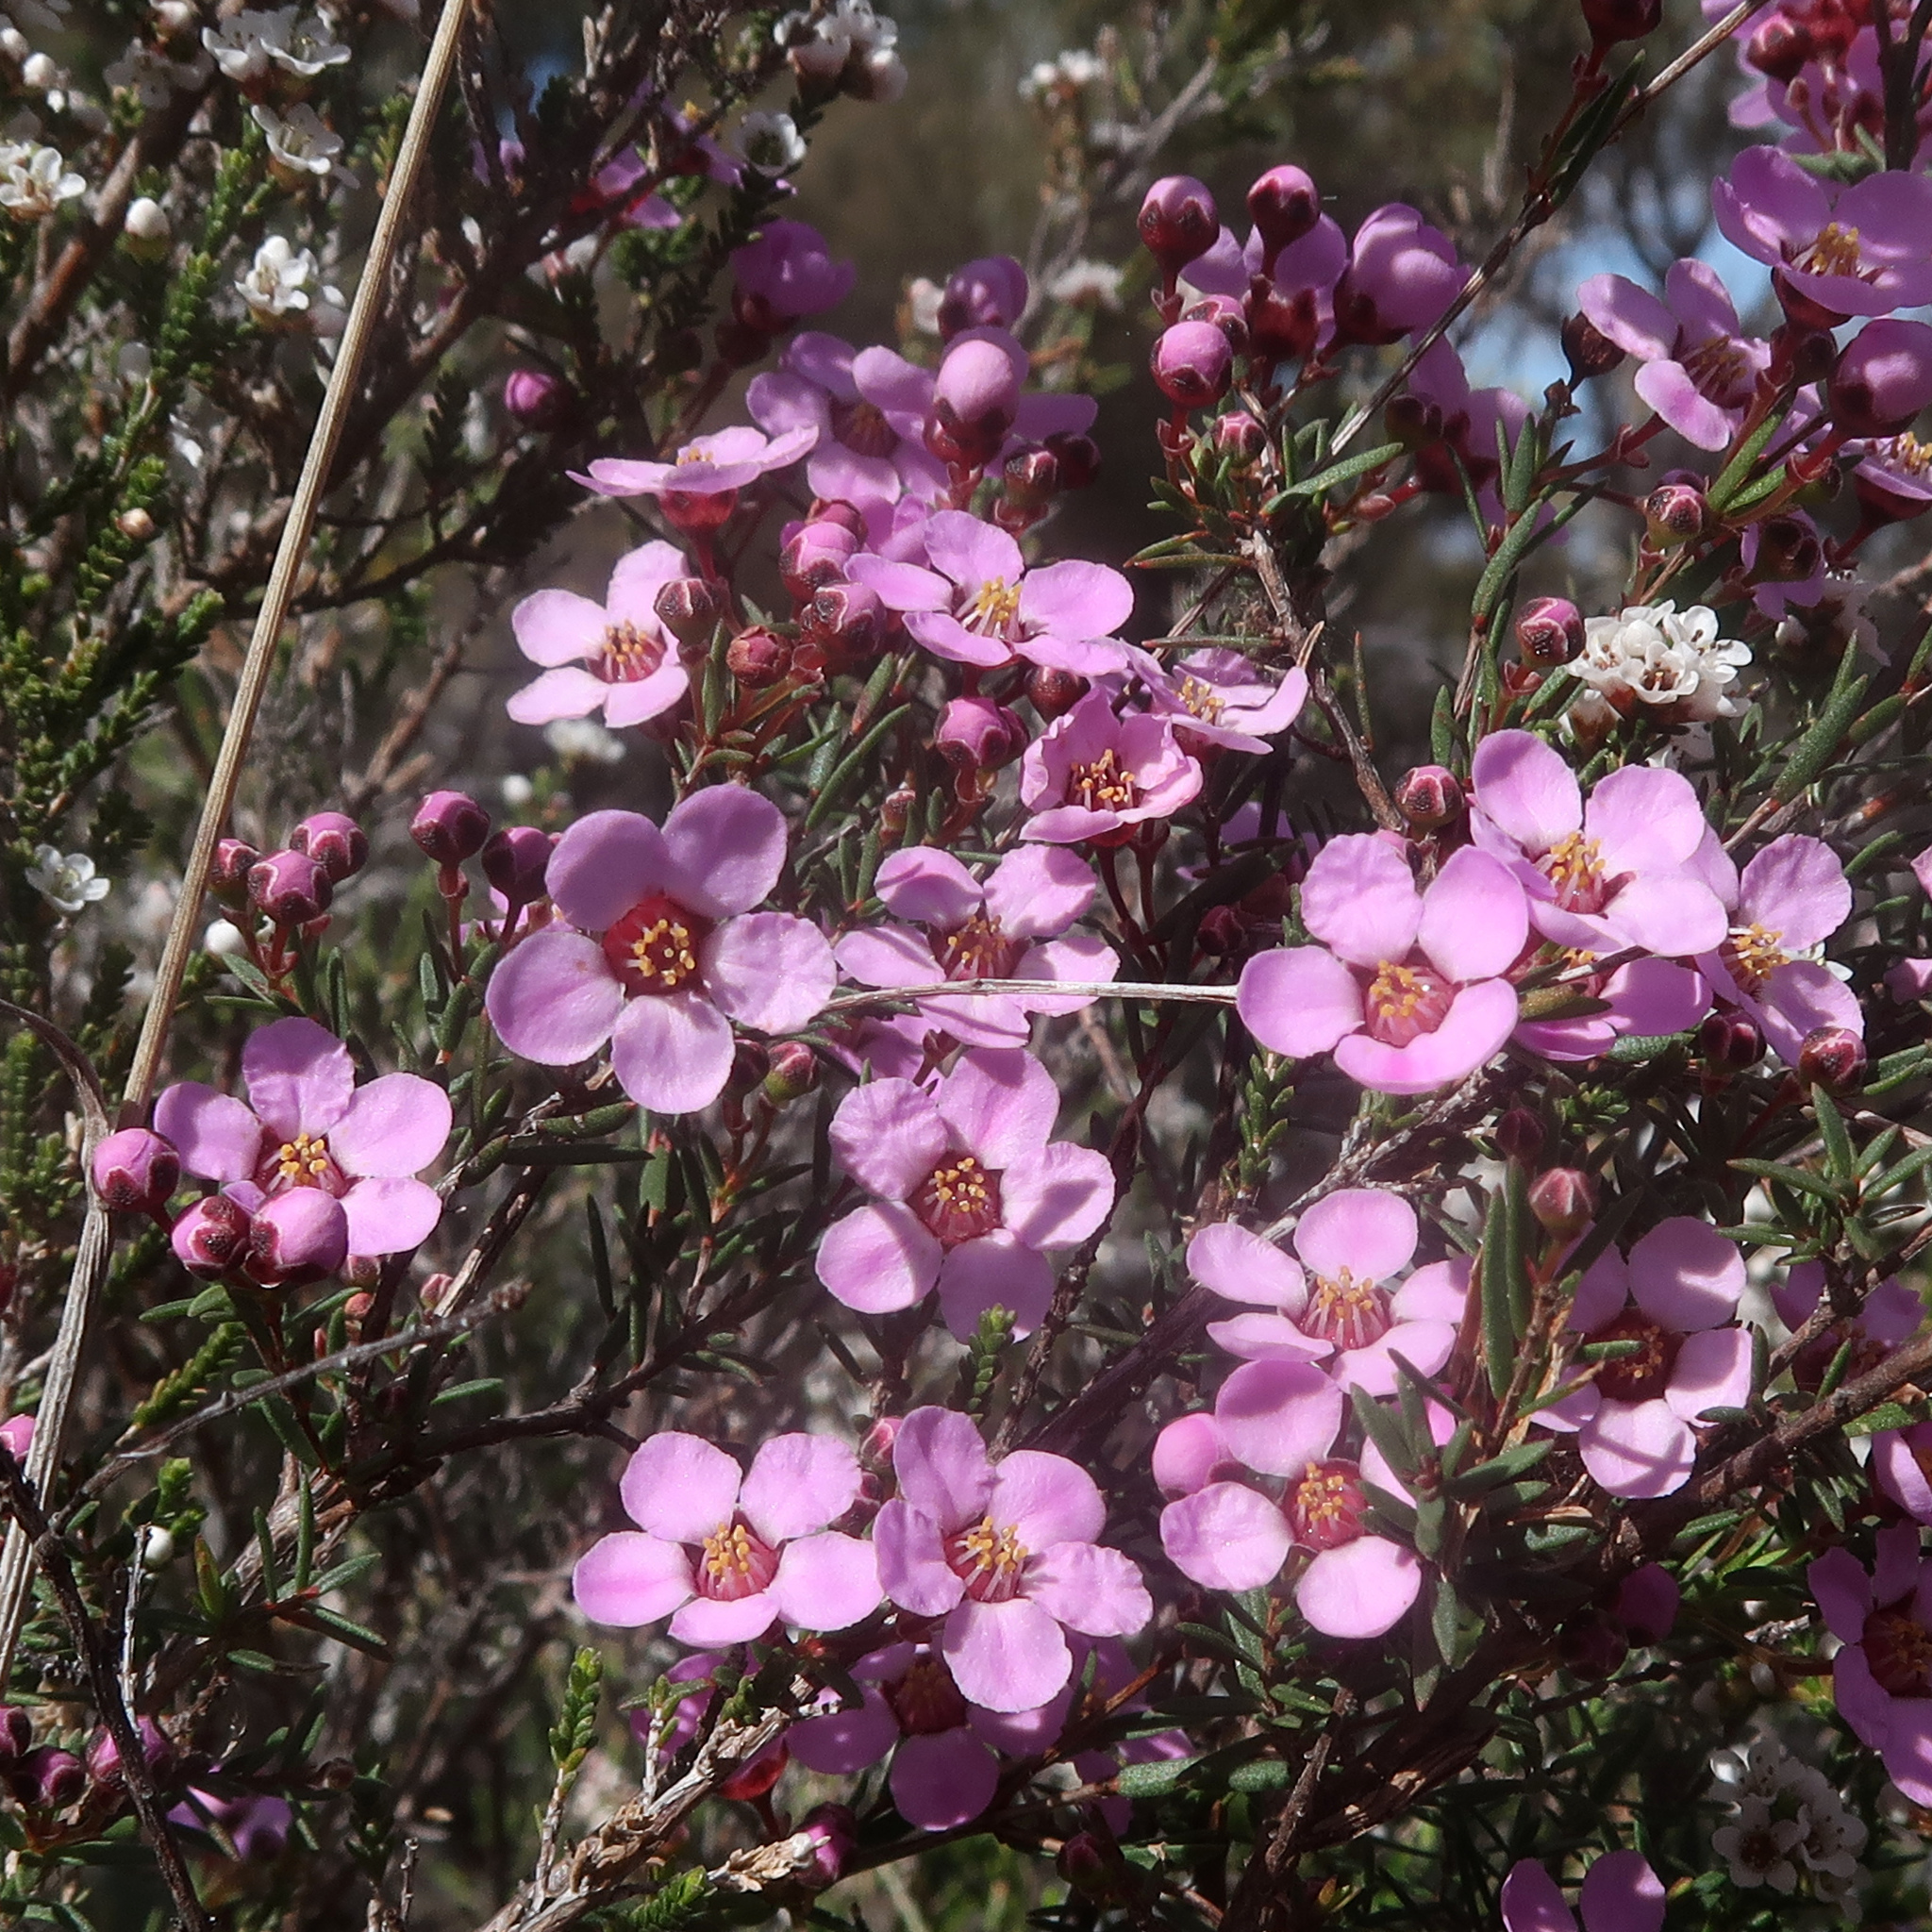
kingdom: Plantae
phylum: Tracheophyta
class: Magnoliopsida
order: Myrtales
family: Myrtaceae
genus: Euryomyrtus
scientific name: Euryomyrtus ramosissima
